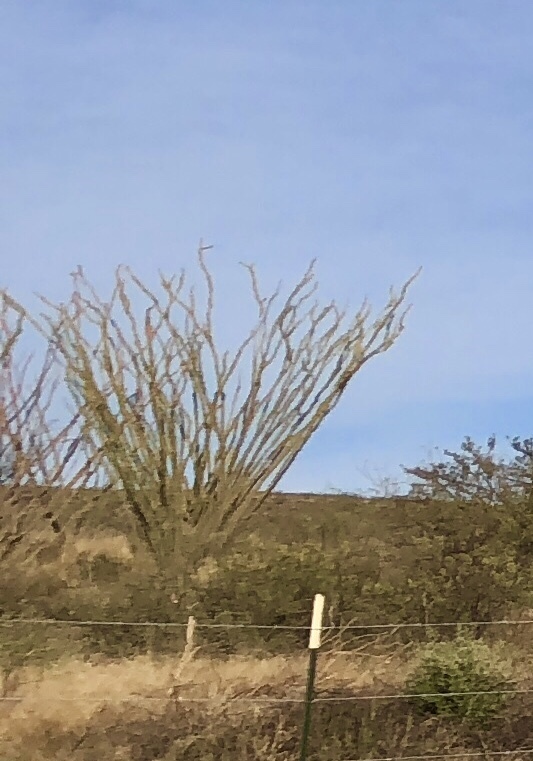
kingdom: Plantae
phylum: Tracheophyta
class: Magnoliopsida
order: Ericales
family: Fouquieriaceae
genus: Fouquieria
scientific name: Fouquieria splendens
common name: Vine-cactus
